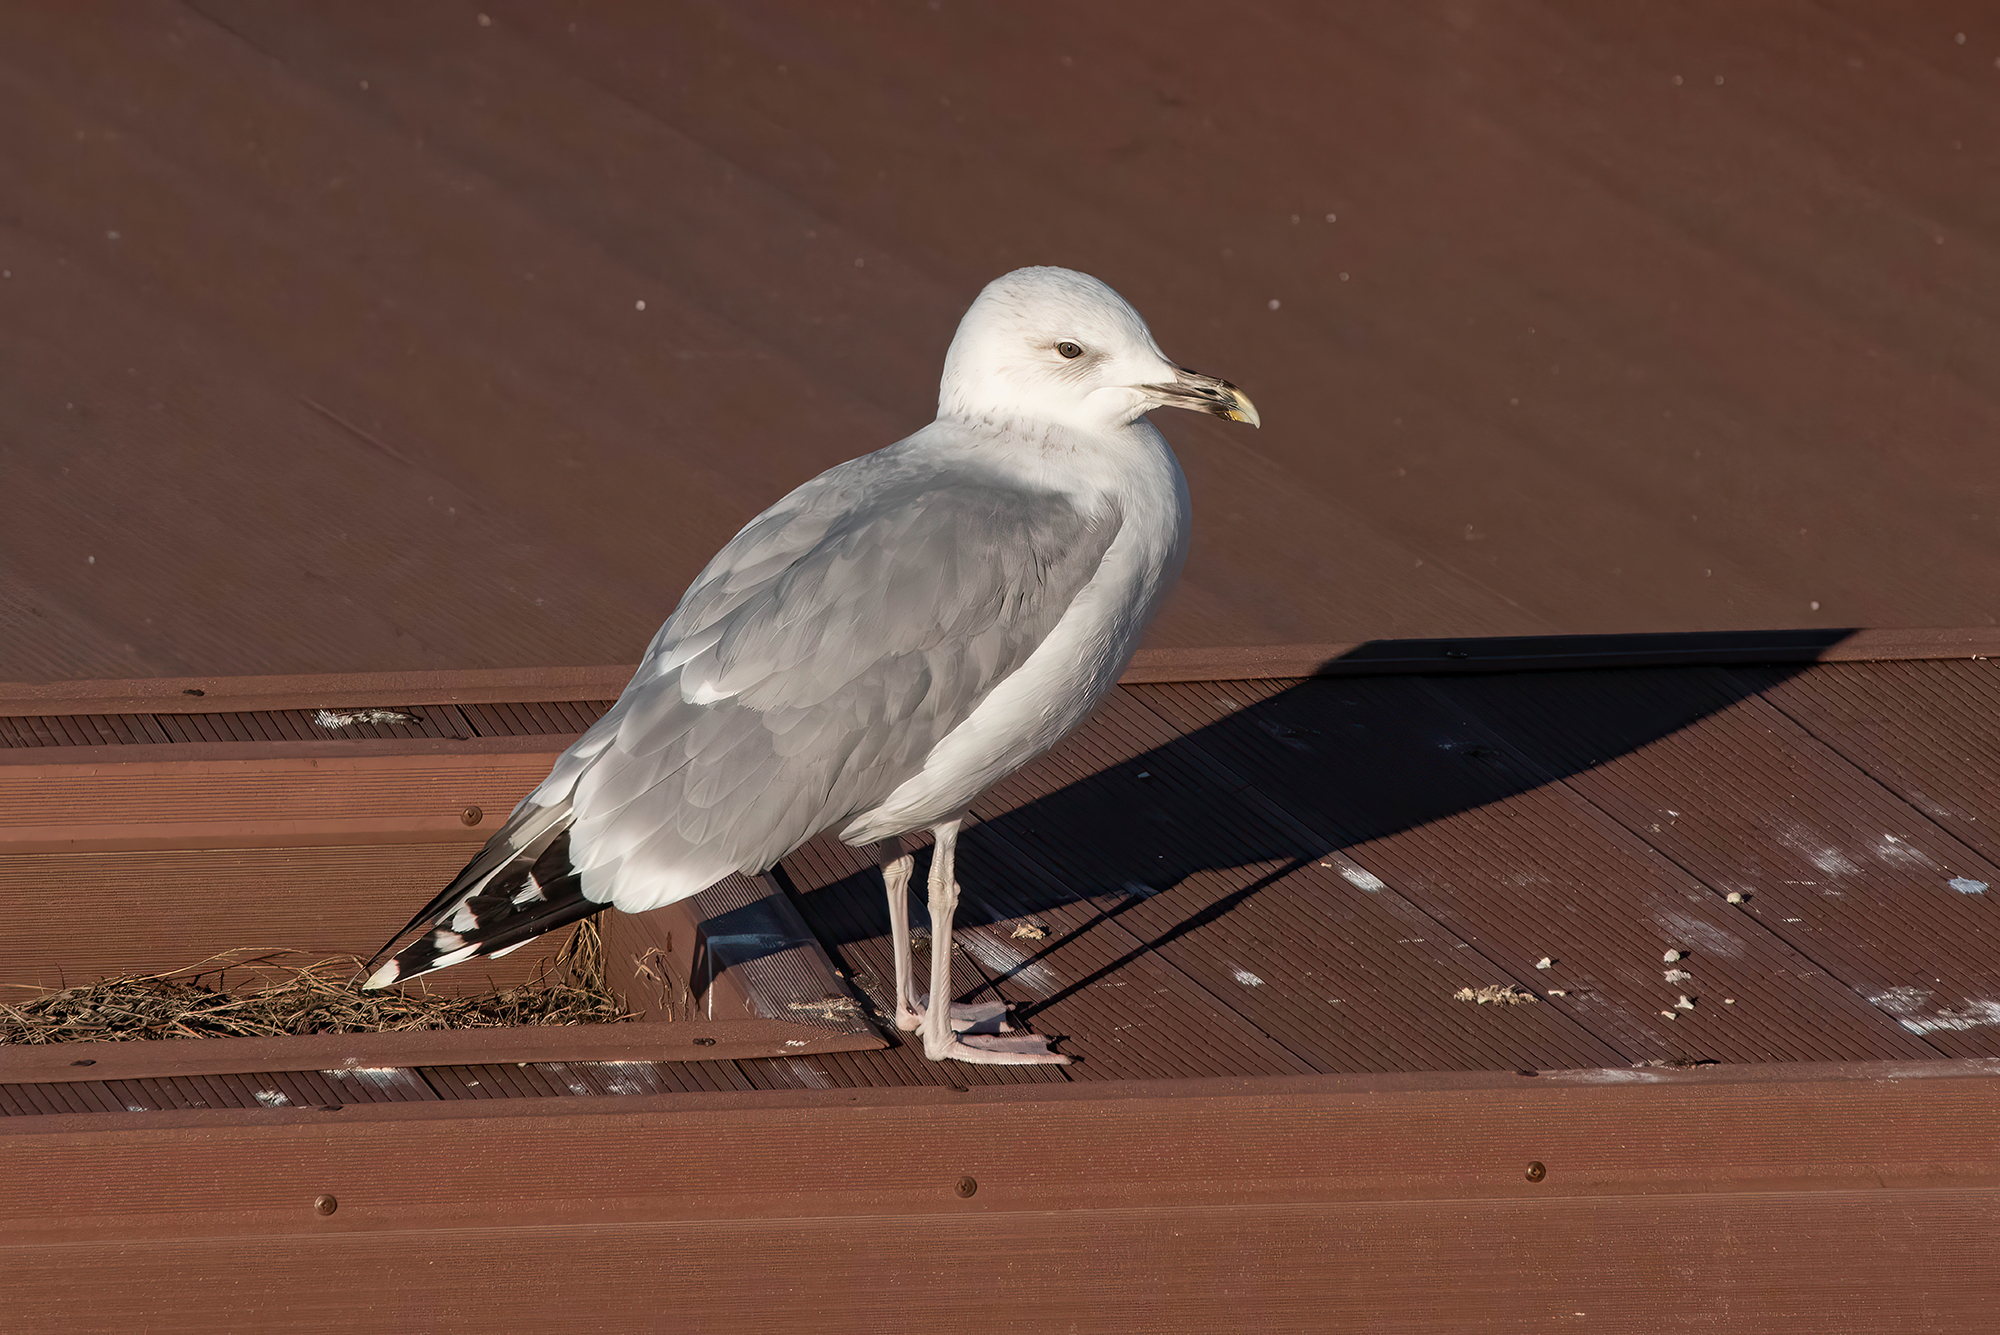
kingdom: Animalia
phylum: Chordata
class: Aves
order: Charadriiformes
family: Laridae
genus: Larus
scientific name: Larus michahellis
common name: Yellow-legged gull
